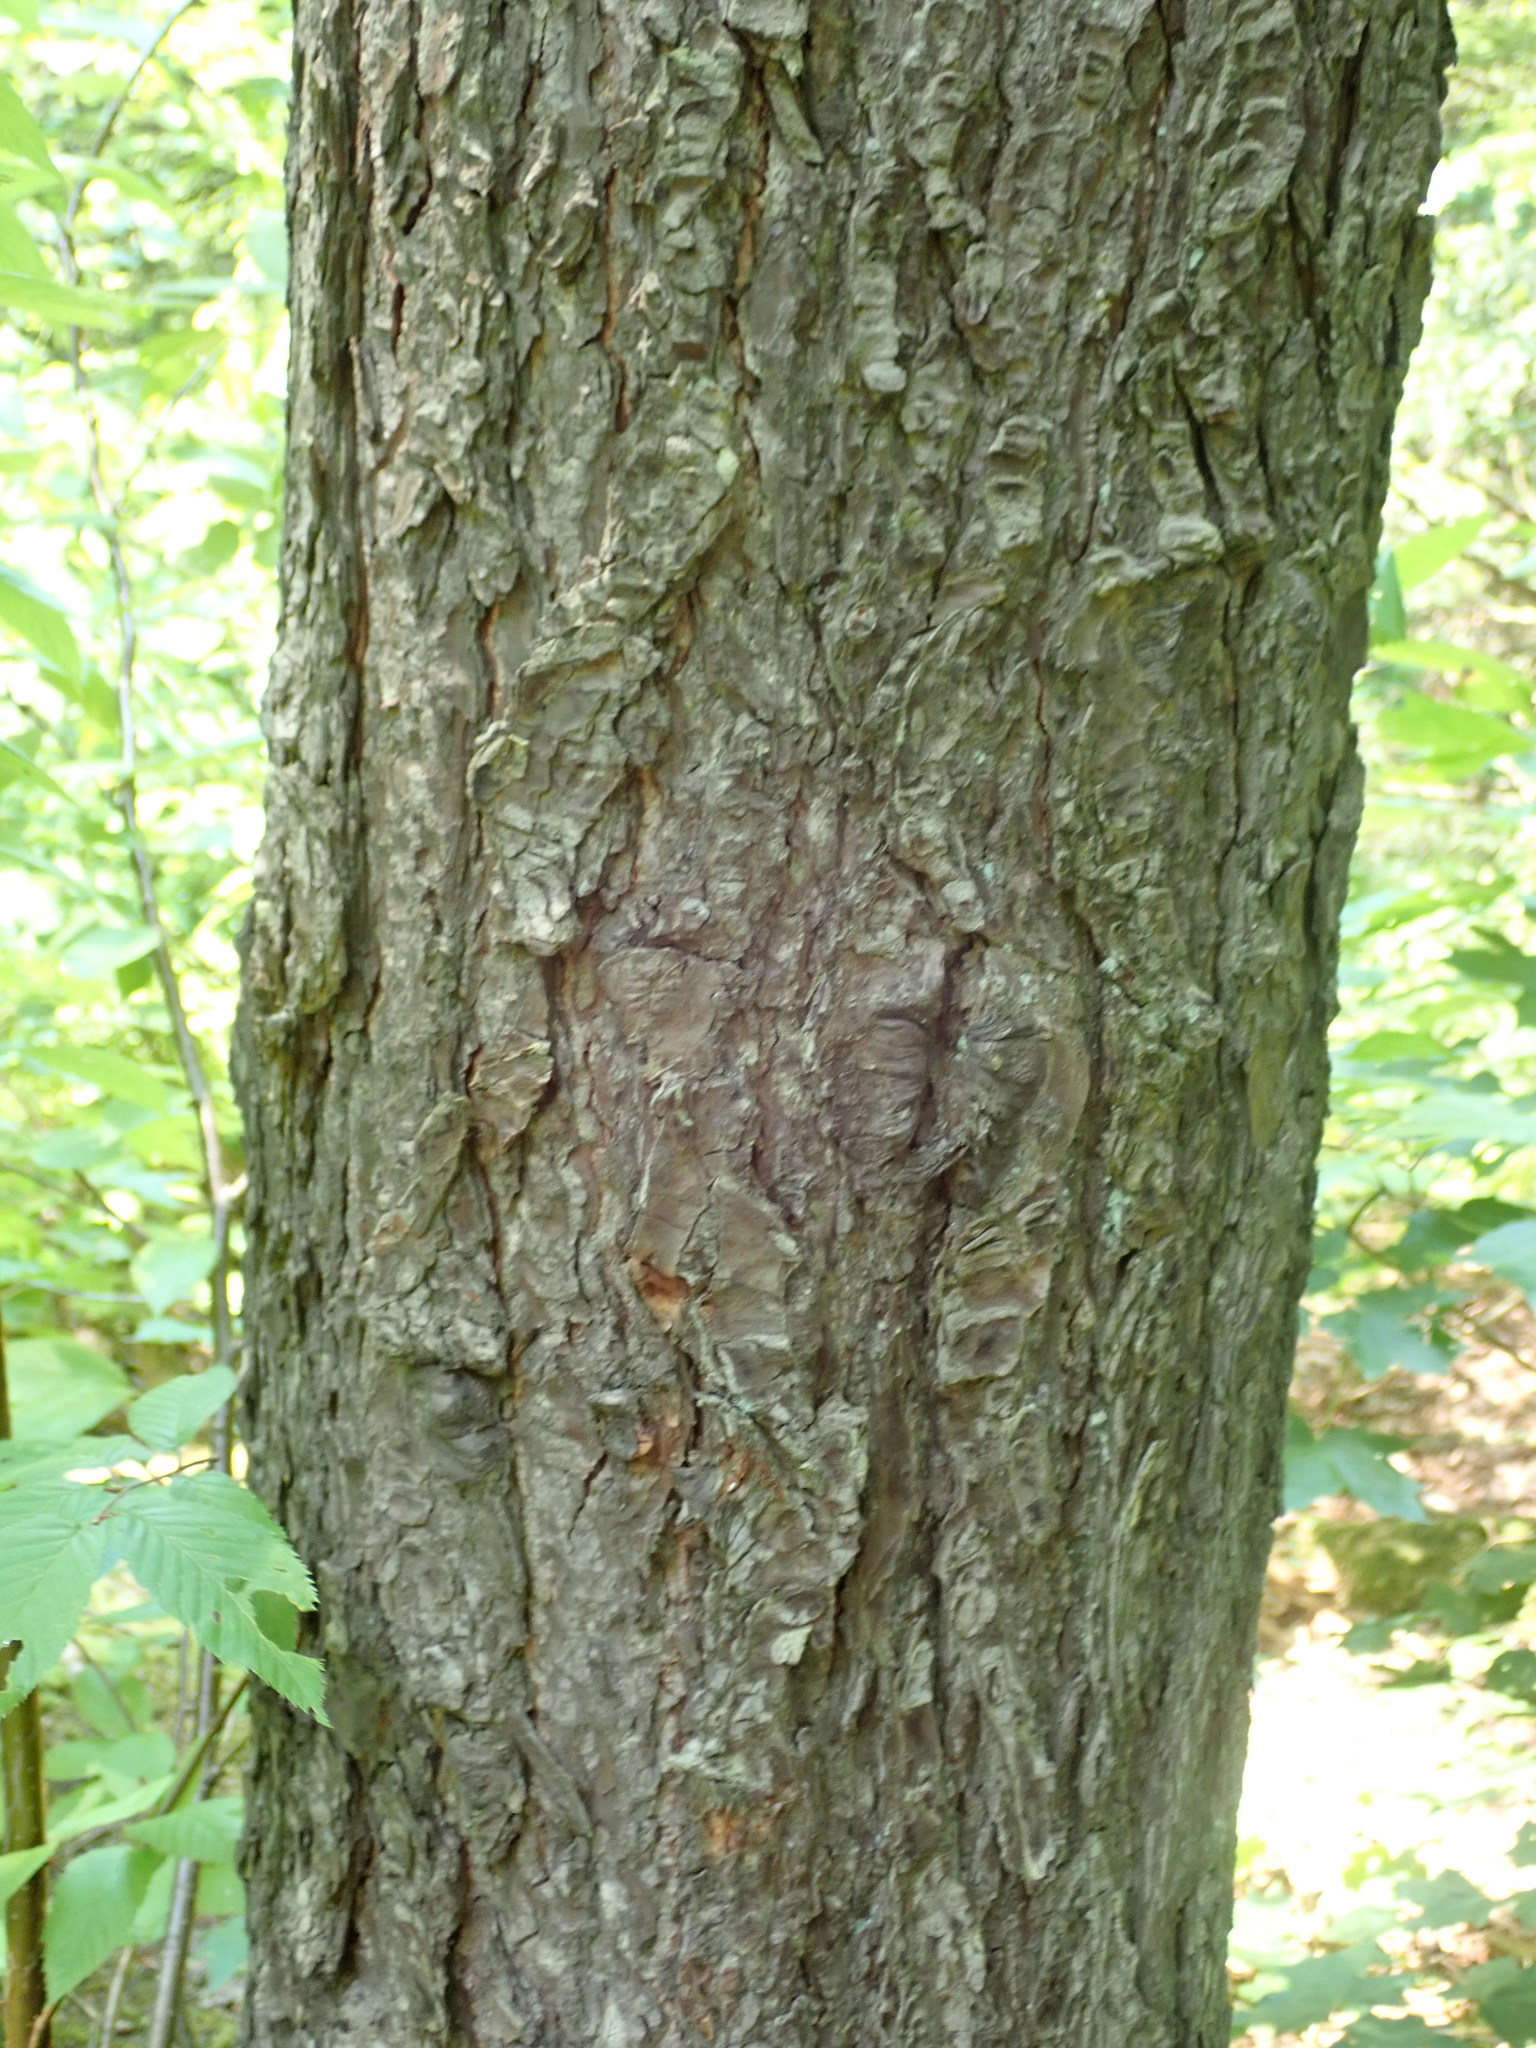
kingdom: Plantae
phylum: Tracheophyta
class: Pinopsida
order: Pinales
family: Pinaceae
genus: Tsuga
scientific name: Tsuga canadensis
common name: Eastern hemlock
